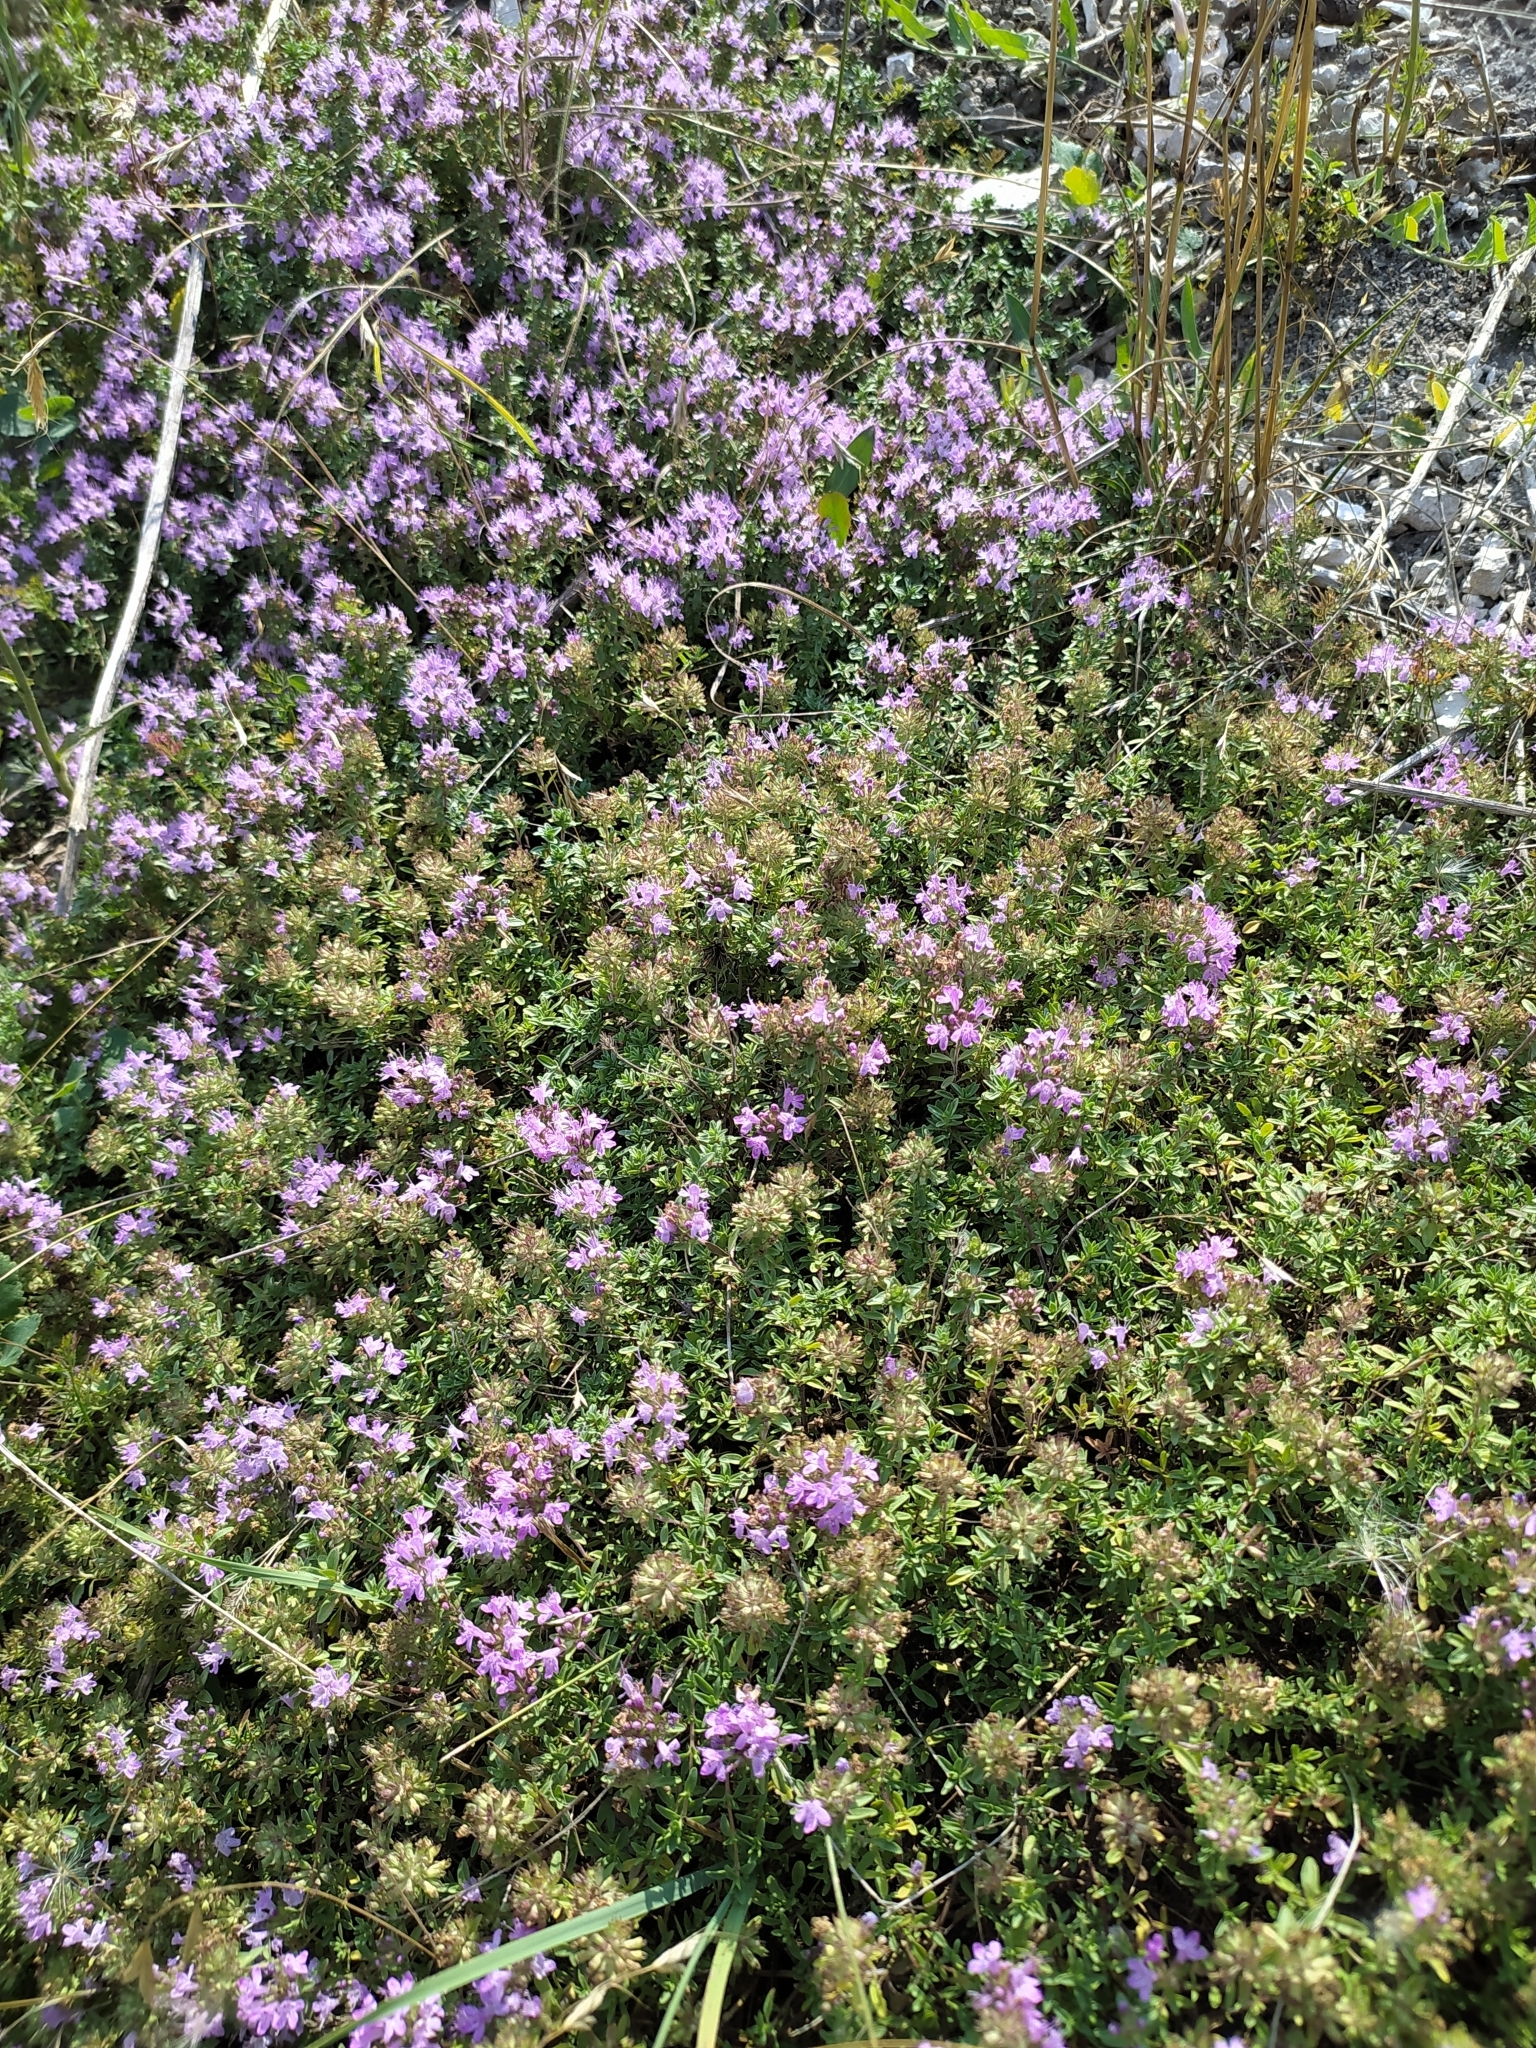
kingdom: Plantae
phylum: Tracheophyta
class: Magnoliopsida
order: Lamiales
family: Lamiaceae
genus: Thymus
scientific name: Thymus serpyllum
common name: Breckland thyme
